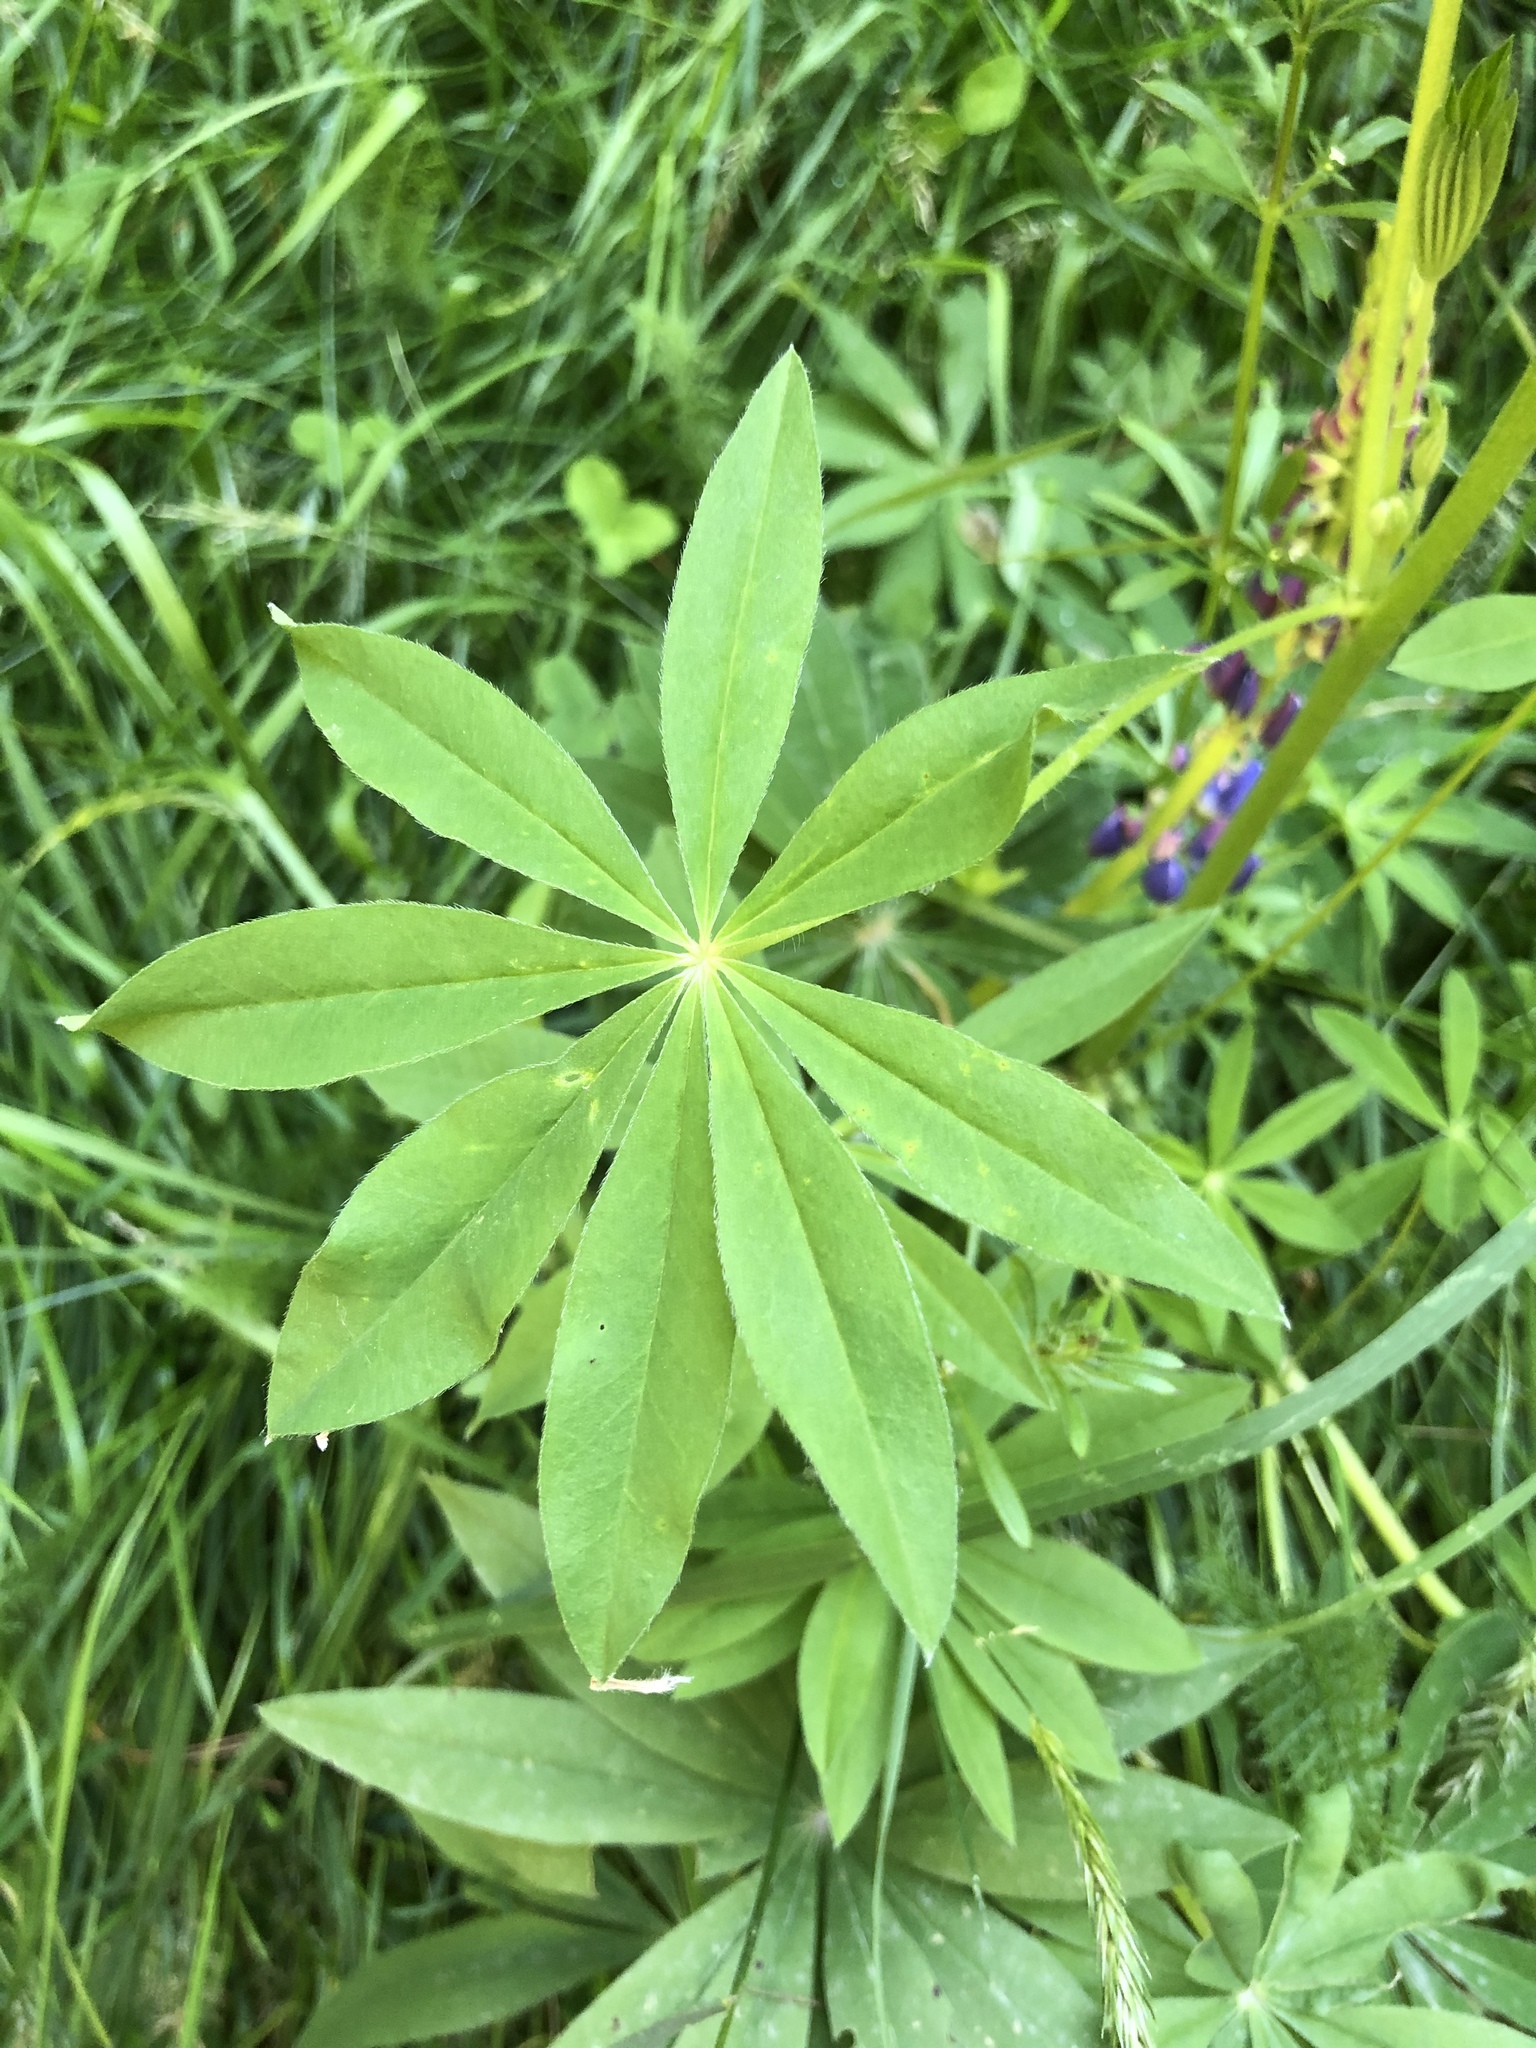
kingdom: Plantae
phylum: Tracheophyta
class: Magnoliopsida
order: Fabales
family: Fabaceae
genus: Lupinus
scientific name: Lupinus polyphyllus
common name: Garden lupin
